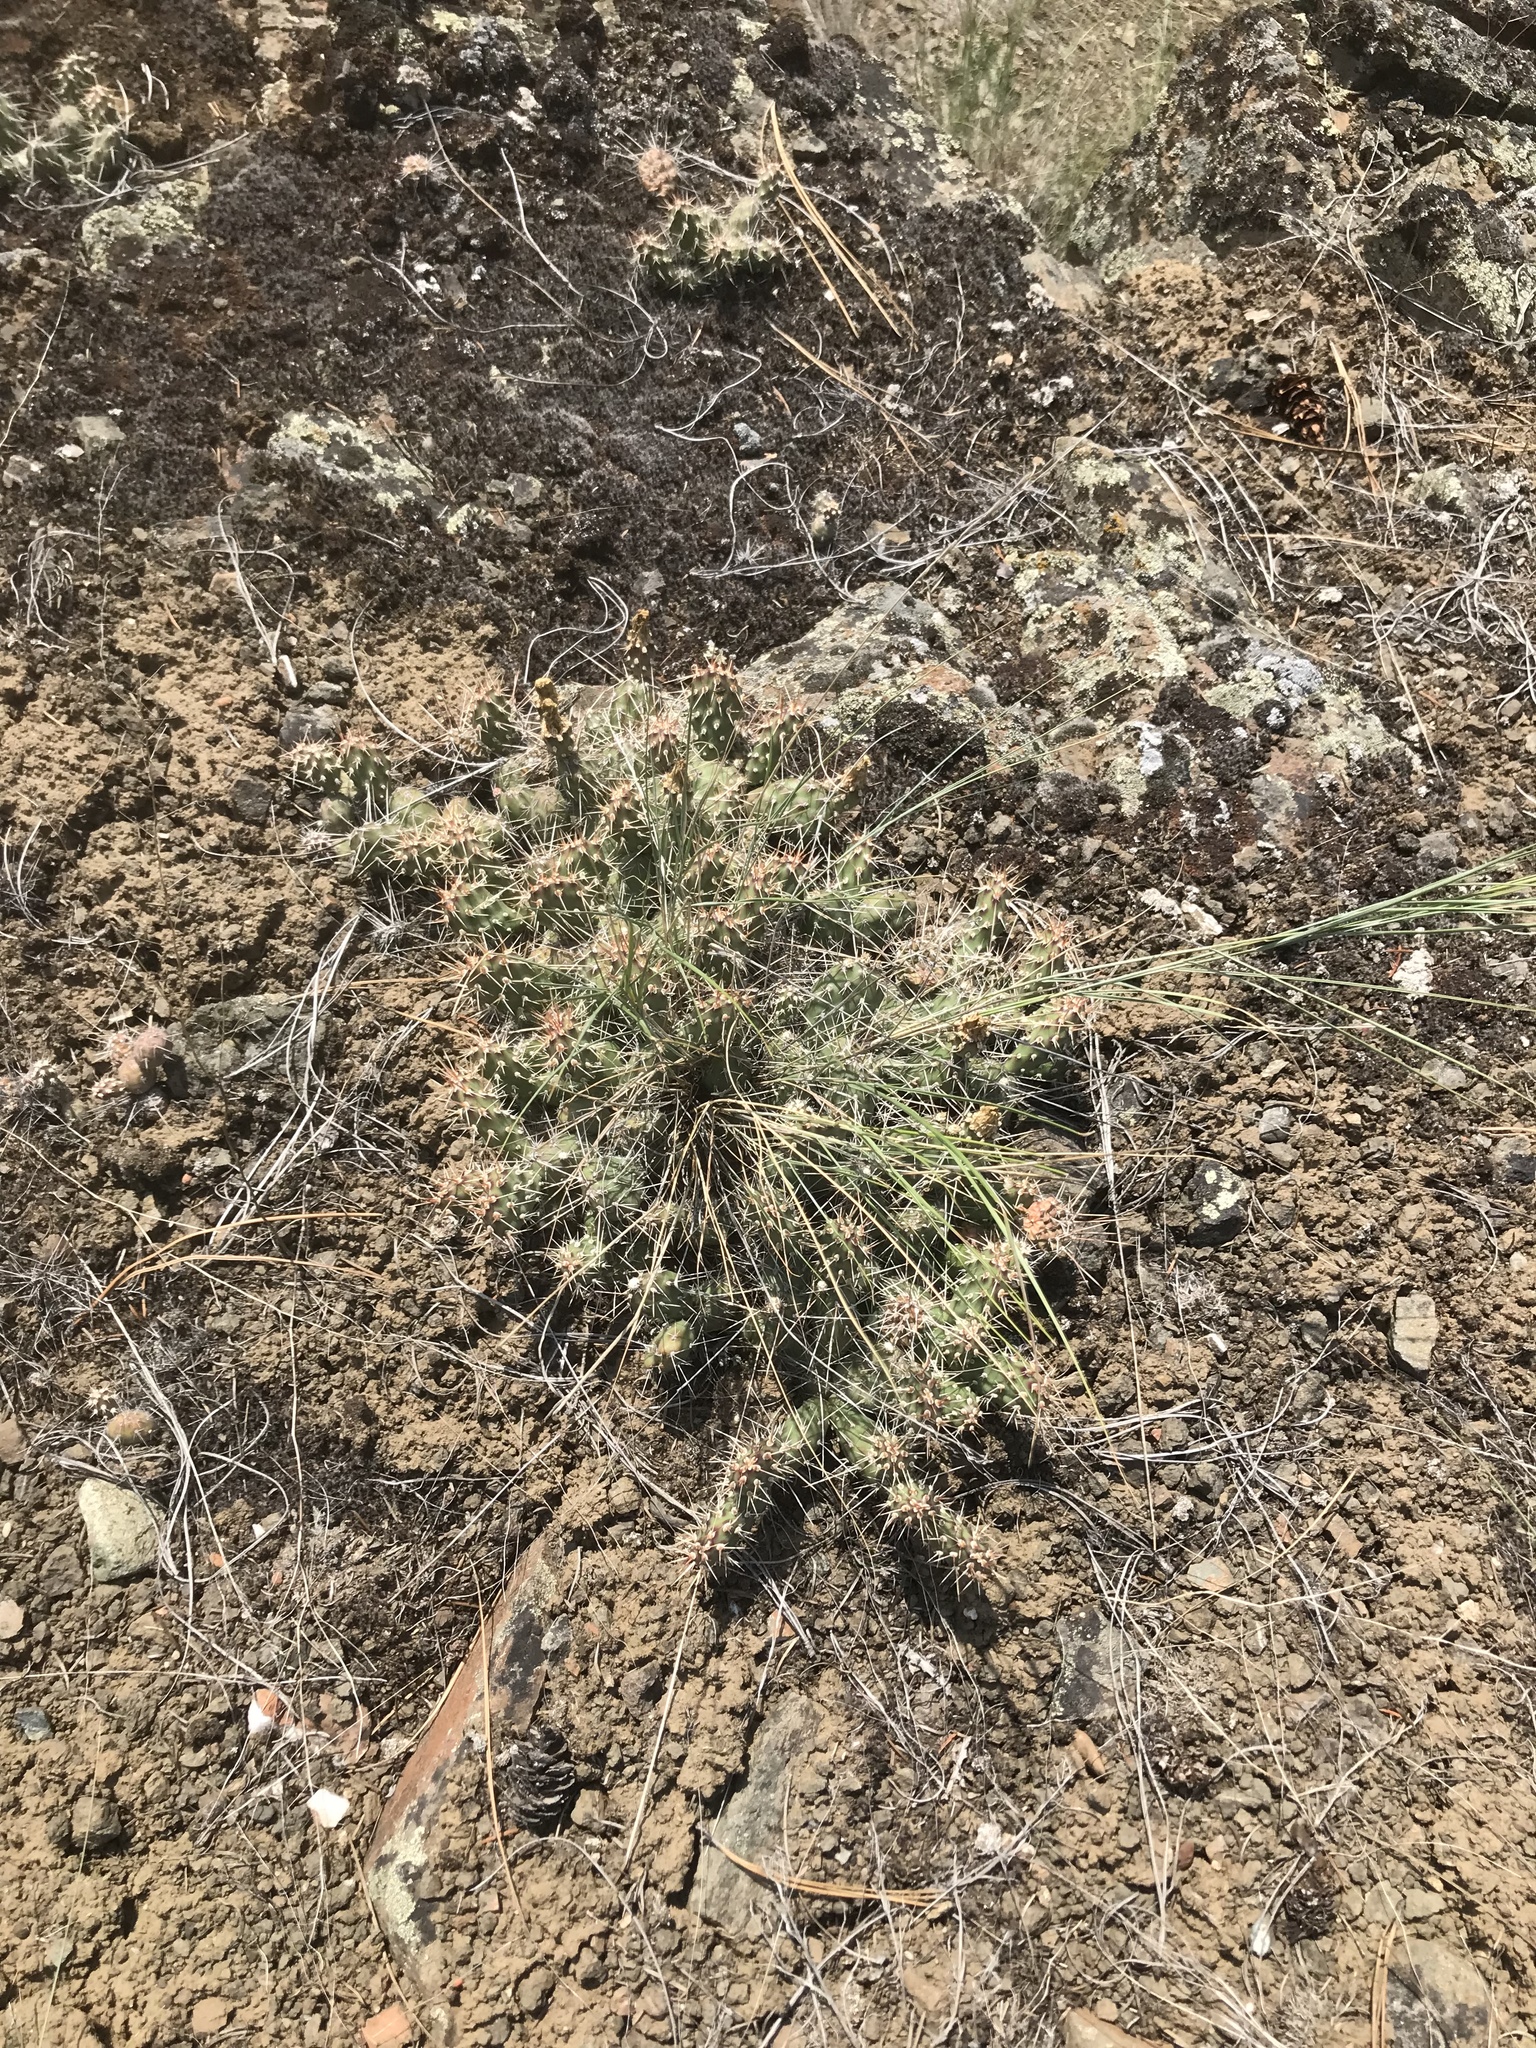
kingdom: Plantae
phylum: Tracheophyta
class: Magnoliopsida
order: Caryophyllales
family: Cactaceae
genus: Opuntia
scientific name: Opuntia fragilis
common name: Brittle cactus
